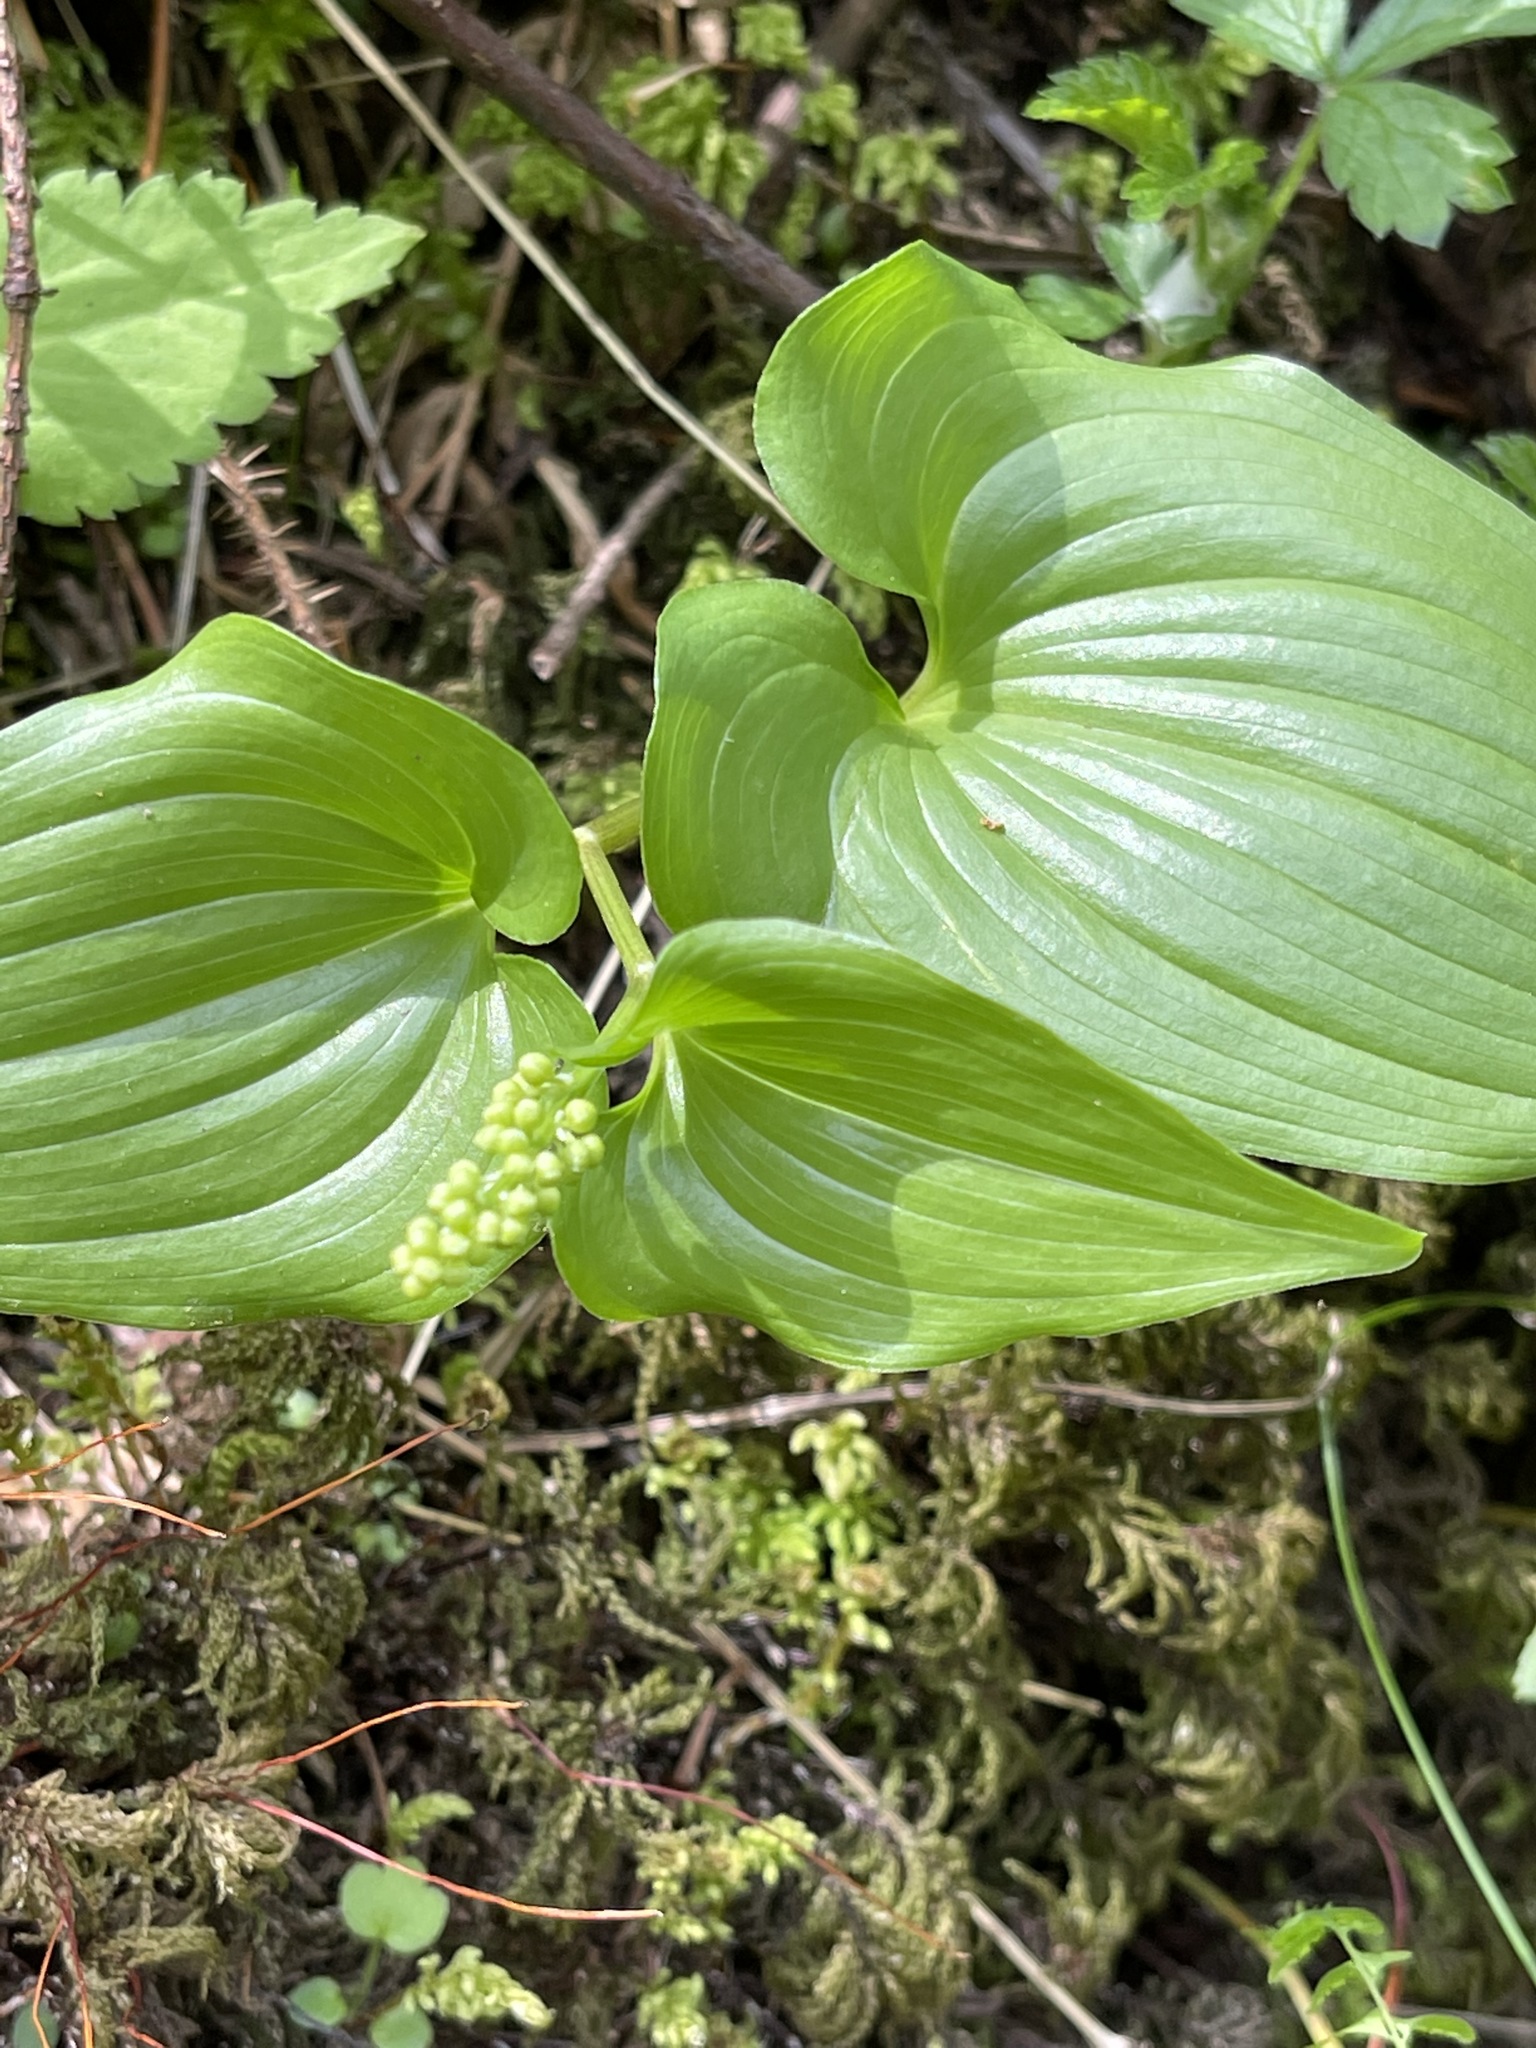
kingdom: Plantae
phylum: Tracheophyta
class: Liliopsida
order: Asparagales
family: Asparagaceae
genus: Maianthemum
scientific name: Maianthemum dilatatum
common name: False lily-of-the-valley
